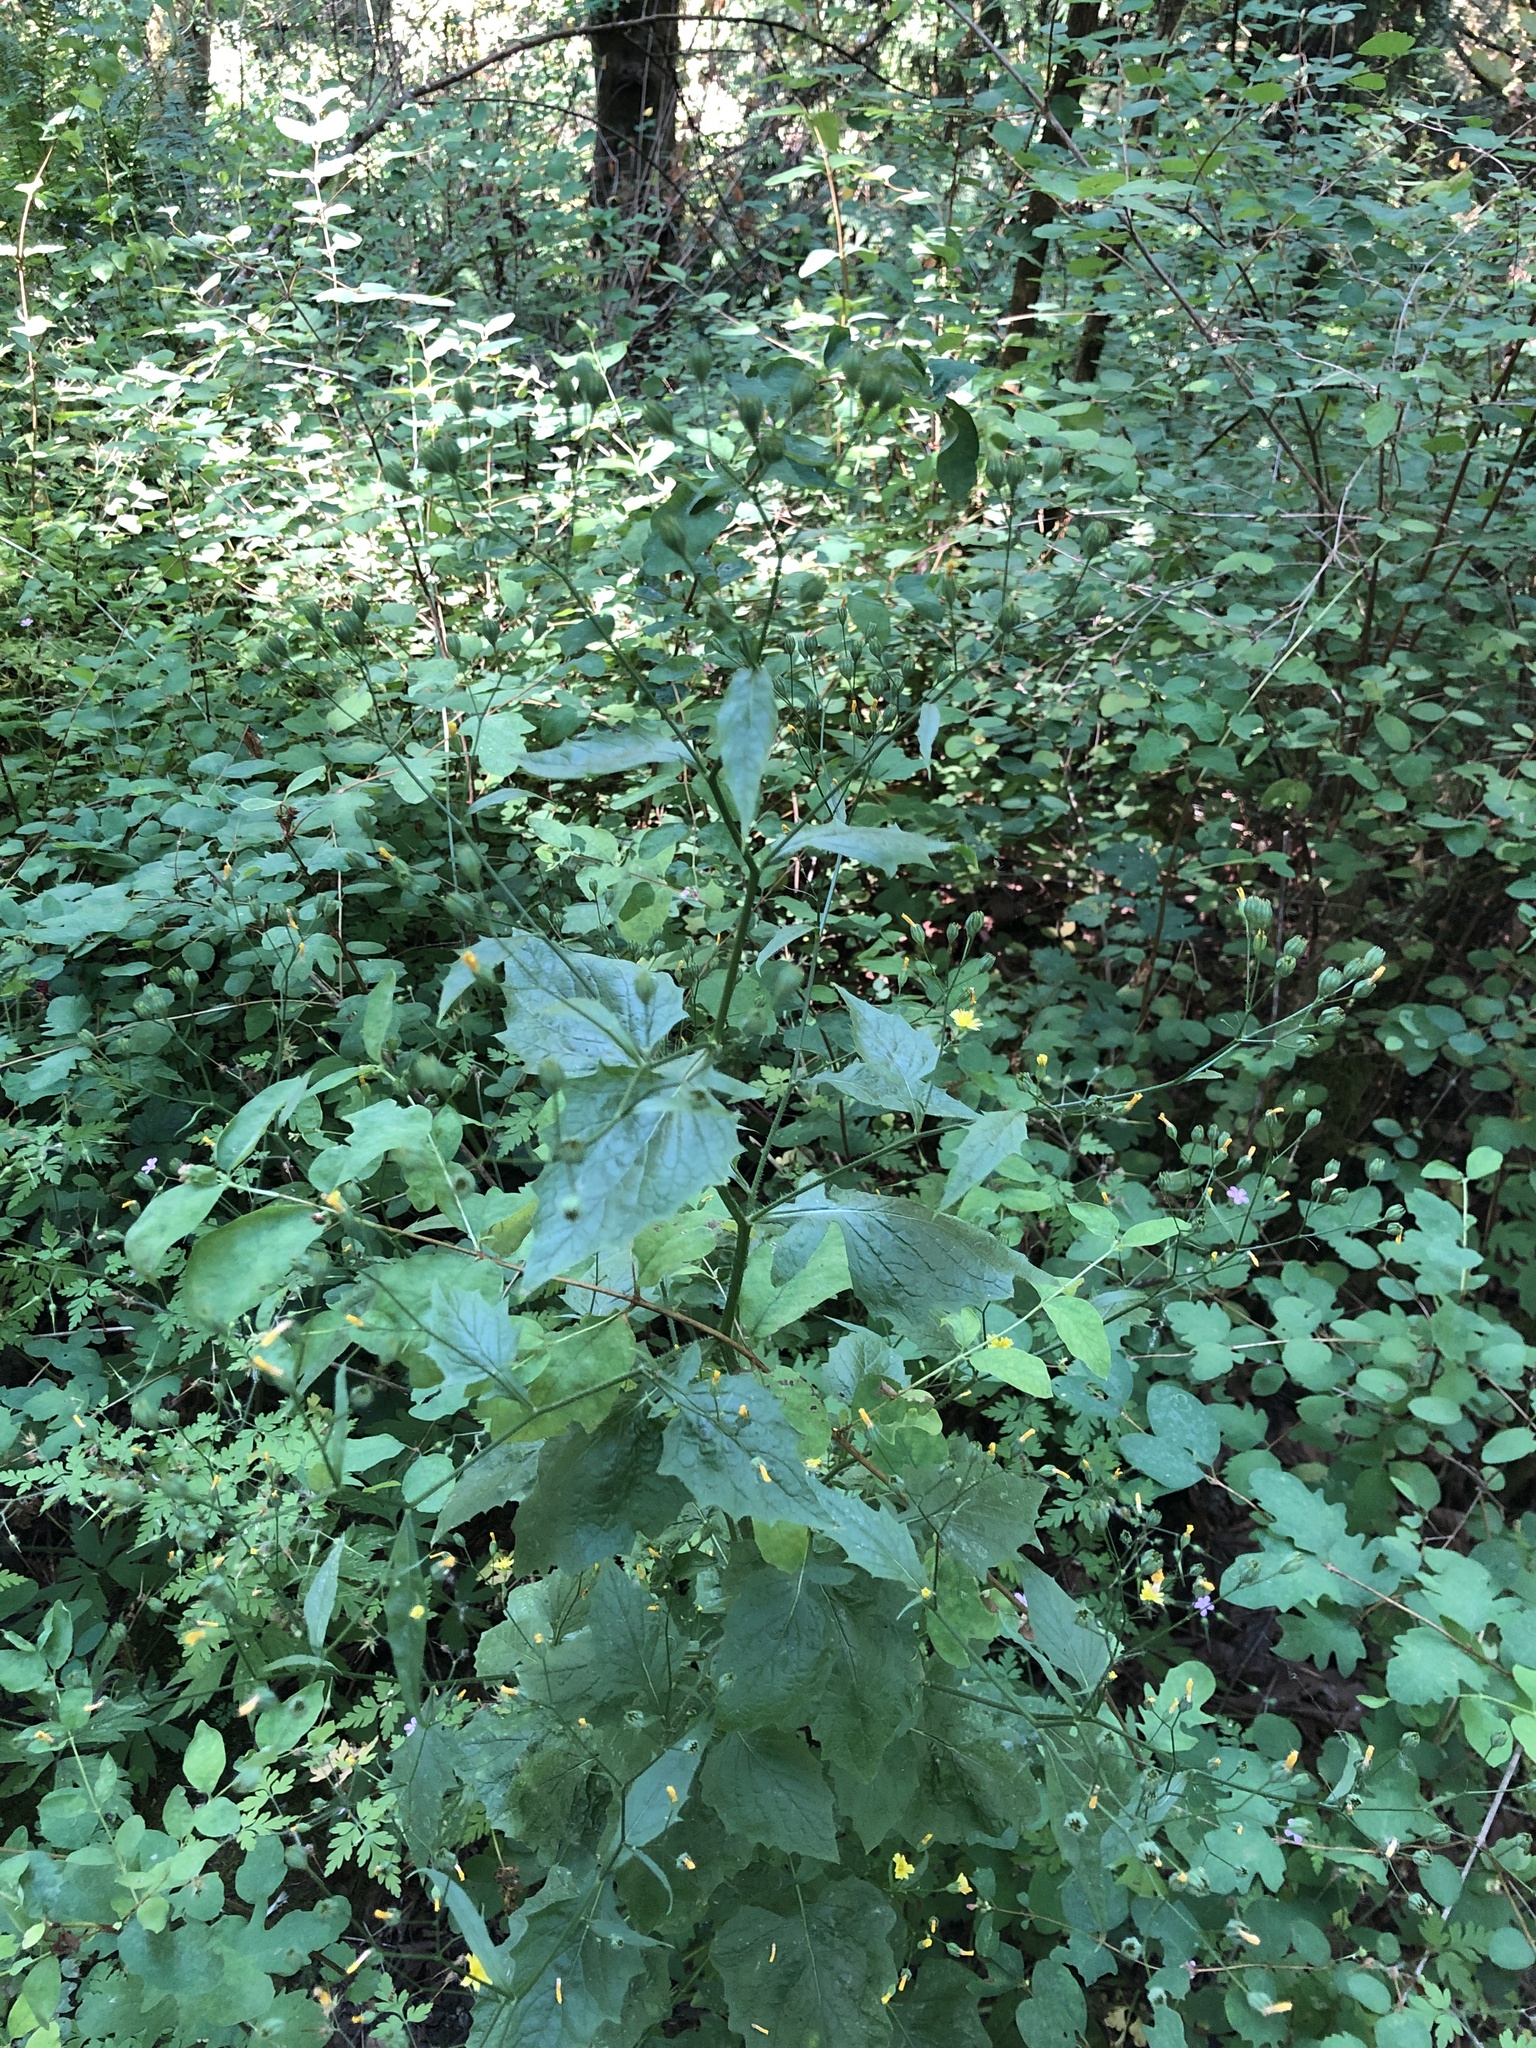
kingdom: Plantae
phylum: Tracheophyta
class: Magnoliopsida
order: Asterales
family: Asteraceae
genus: Lapsana
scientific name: Lapsana communis
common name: Nipplewort
